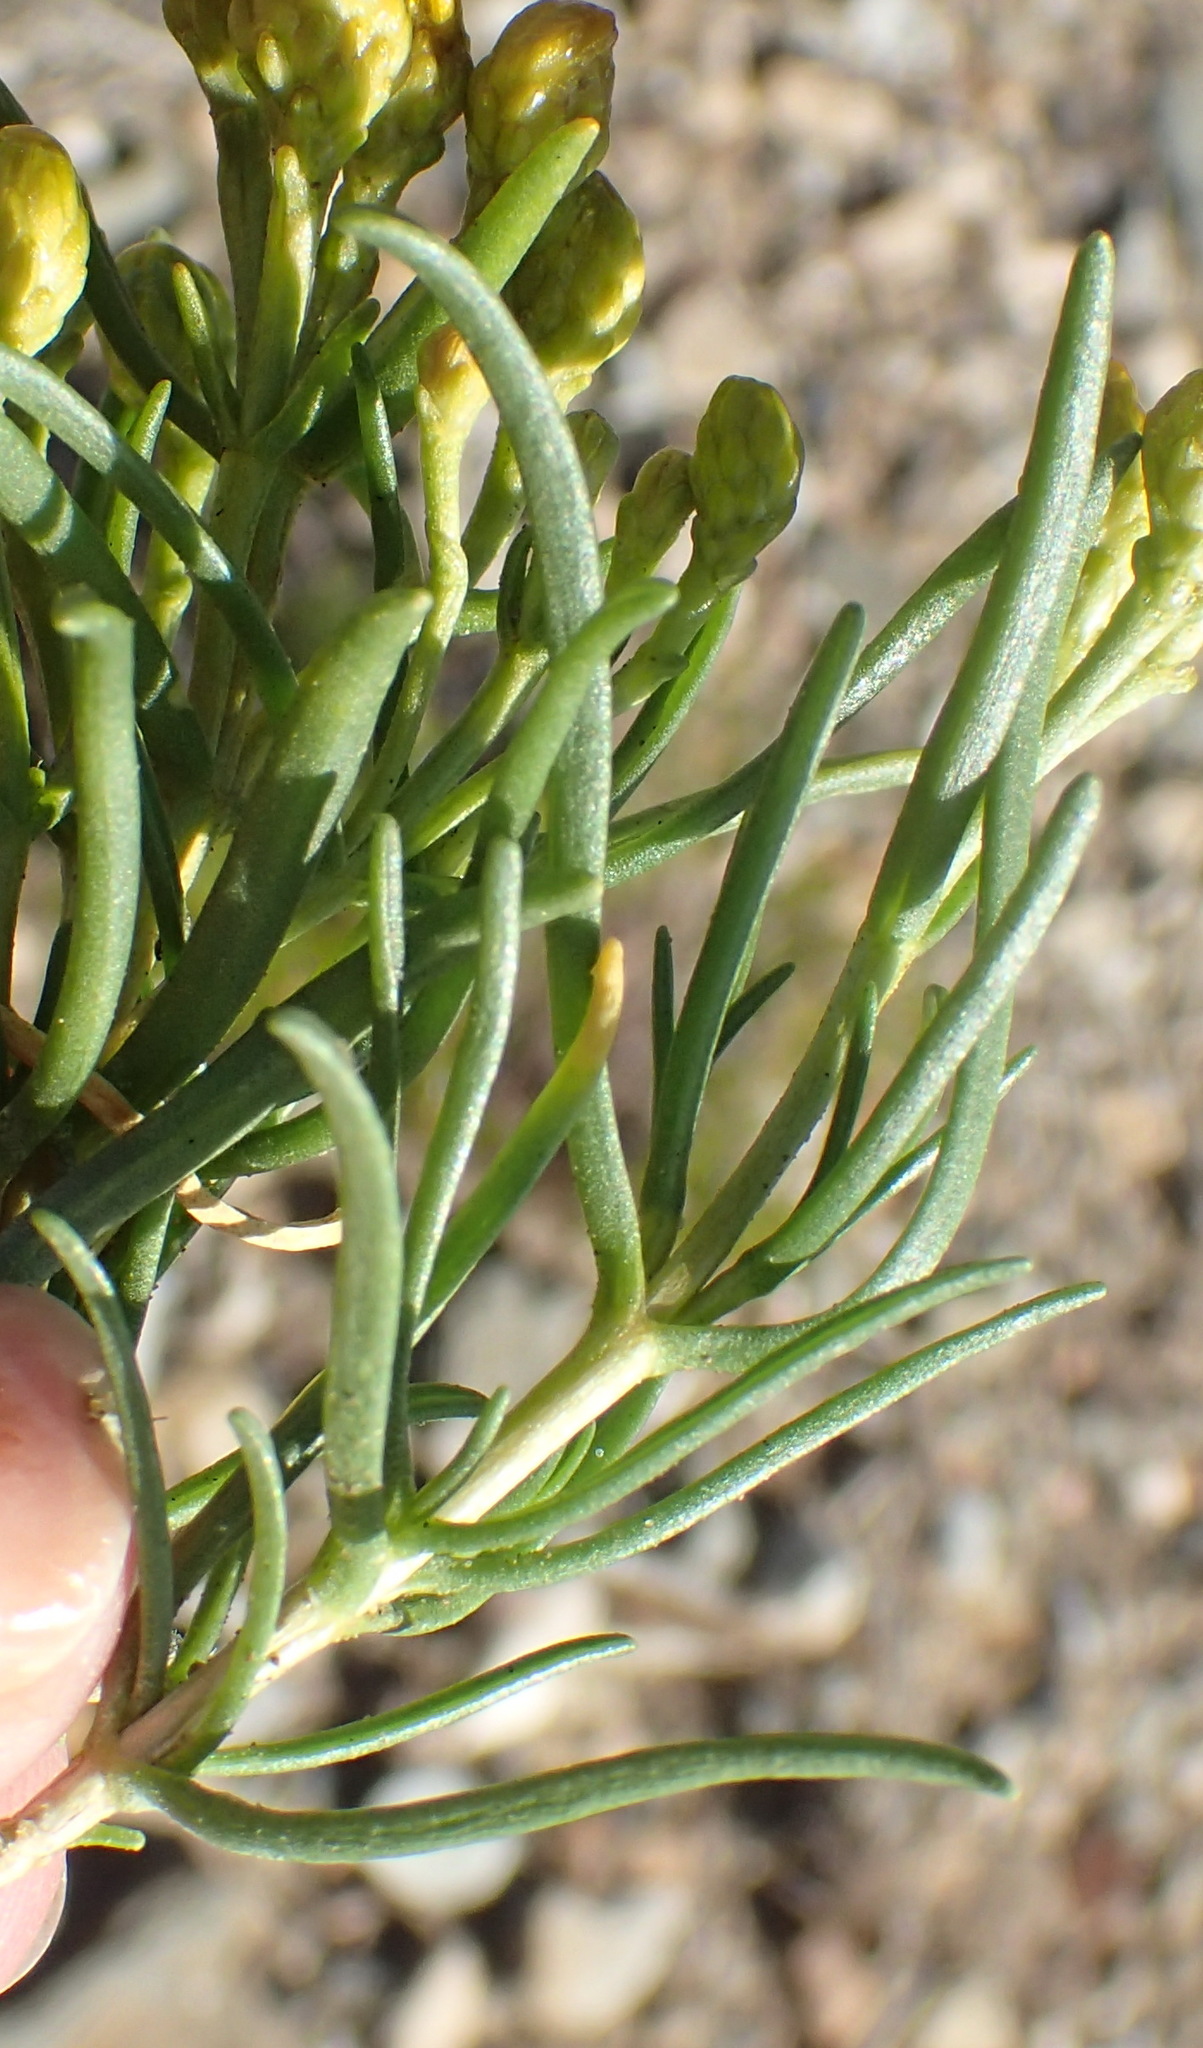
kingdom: Plantae
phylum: Tracheophyta
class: Magnoliopsida
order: Asterales
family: Asteraceae
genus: Pteronia
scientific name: Pteronia pallens
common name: Scholtzbush
